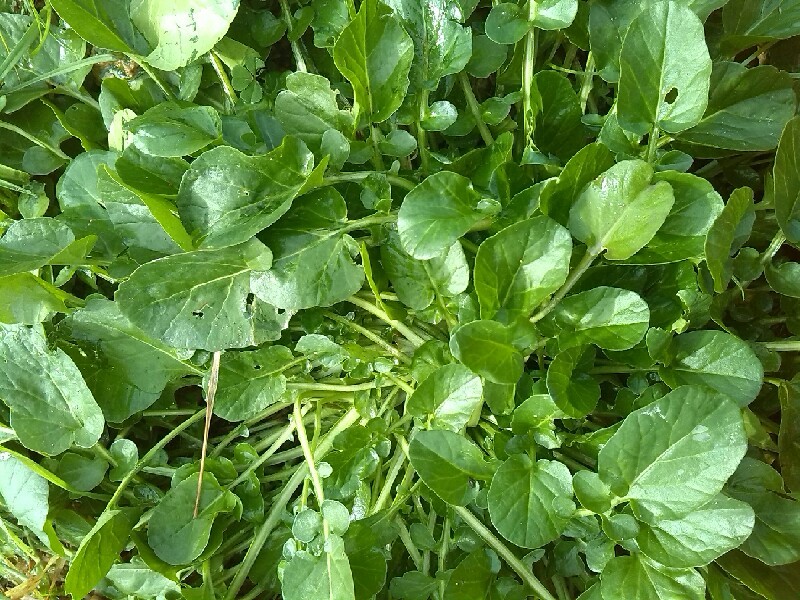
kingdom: Plantae
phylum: Tracheophyta
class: Magnoliopsida
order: Brassicales
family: Brassicaceae
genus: Barbarea
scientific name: Barbarea vulgaris
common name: Cressy-greens
